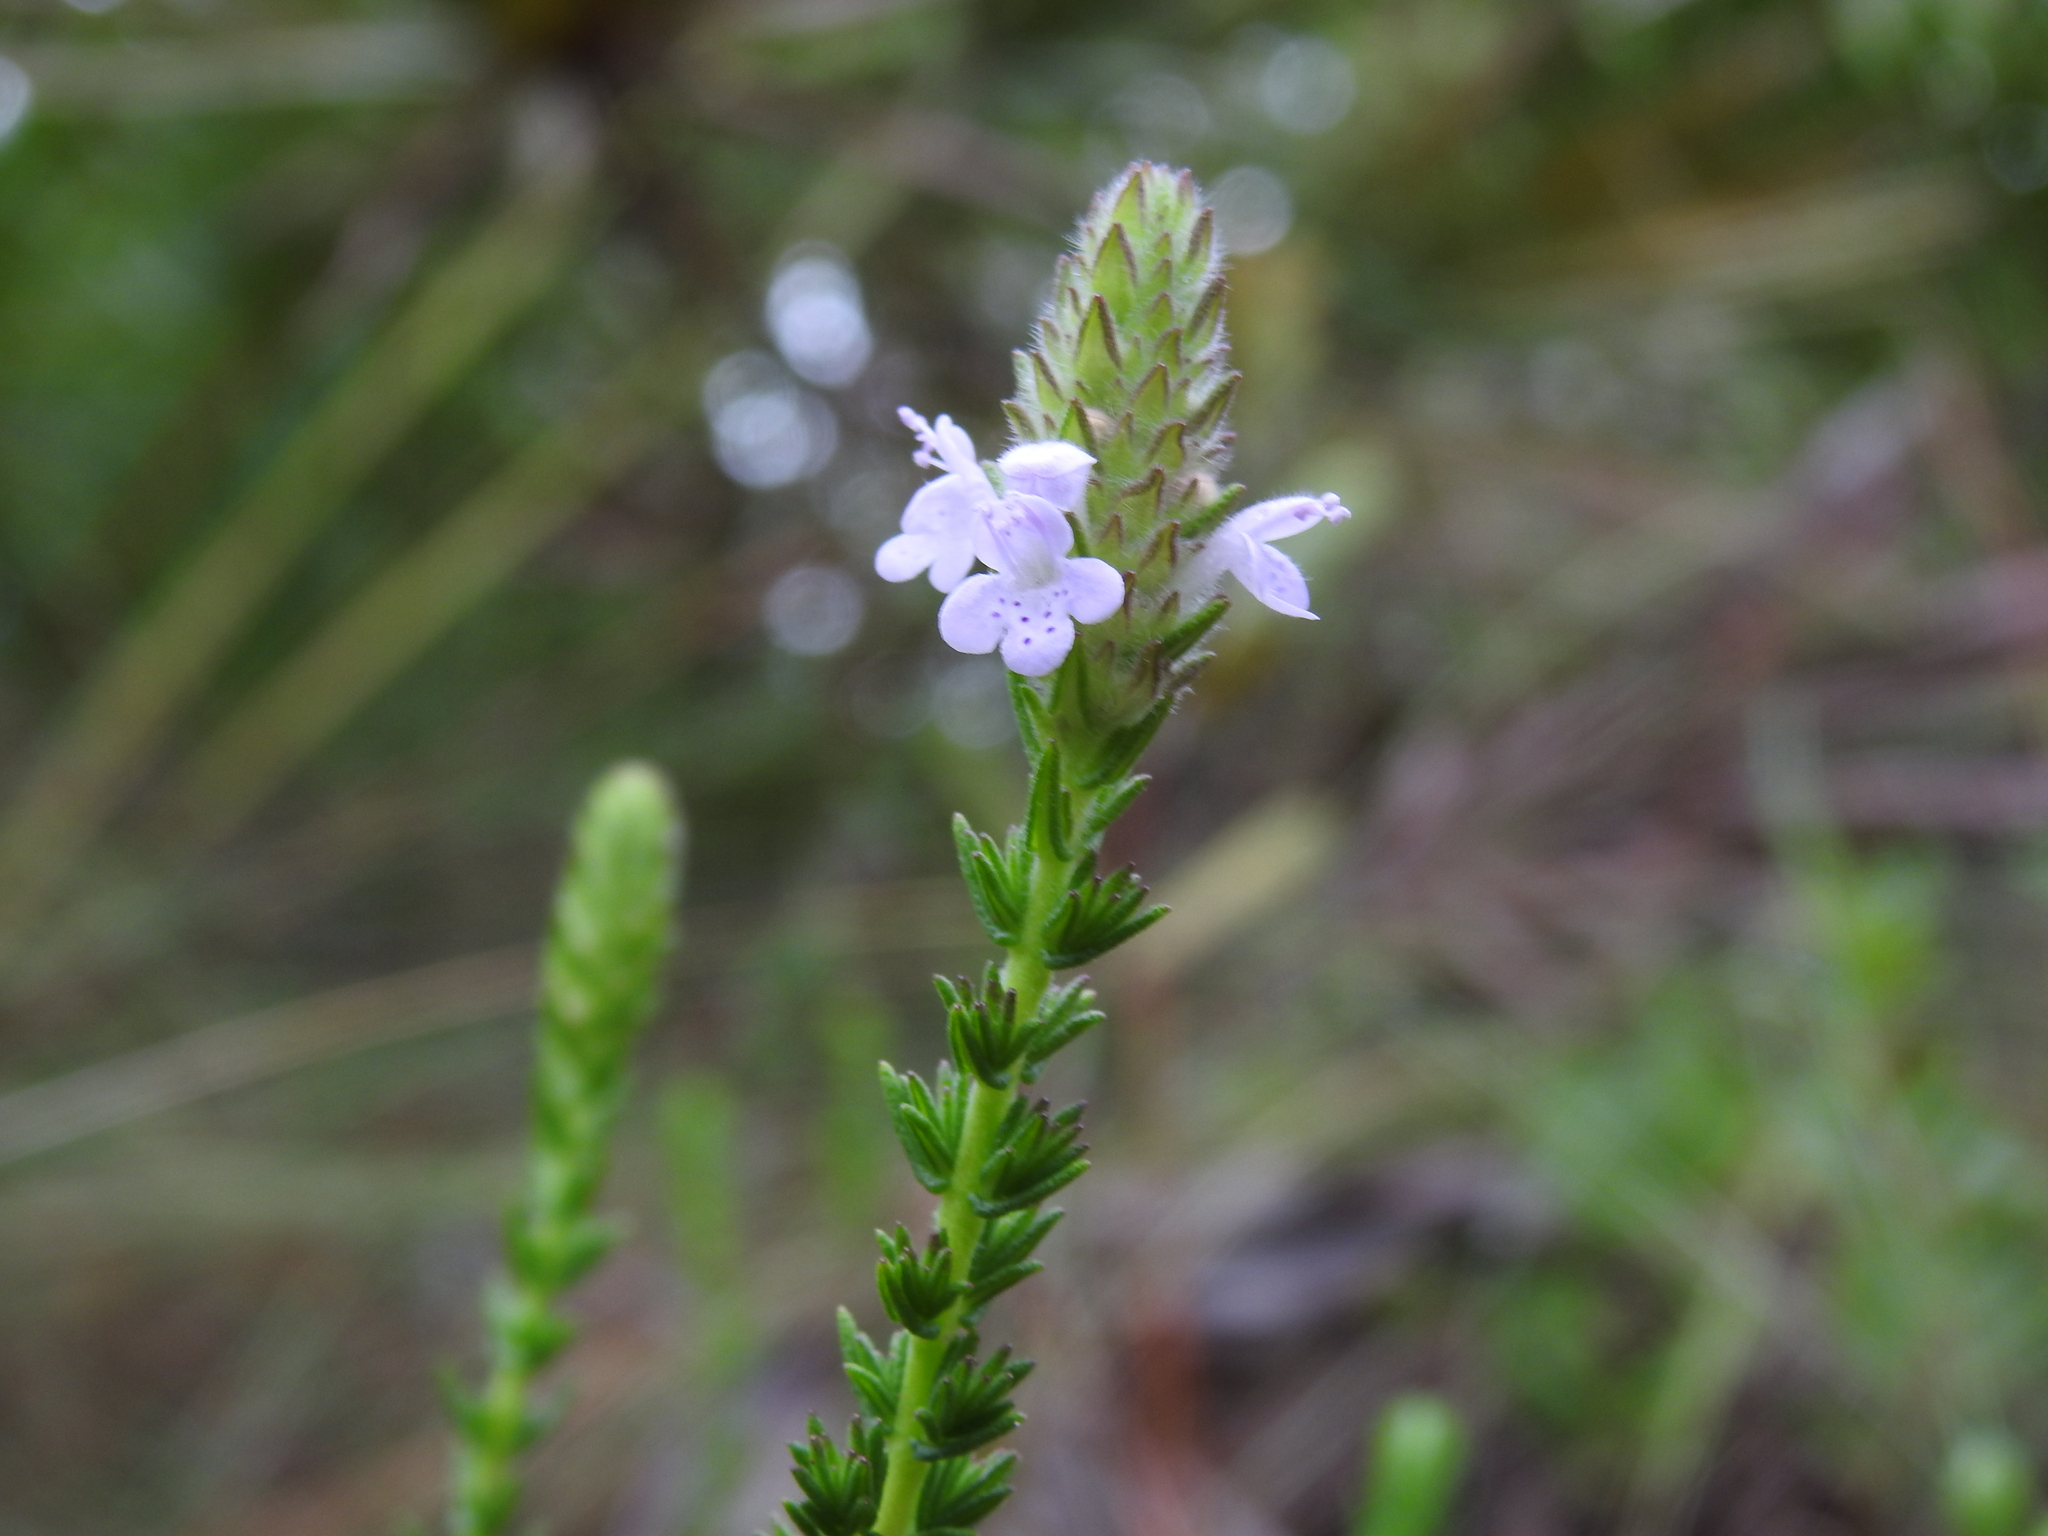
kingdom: Plantae
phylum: Tracheophyta
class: Magnoliopsida
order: Lamiales
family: Lamiaceae
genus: Piloblephis
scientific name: Piloblephis rigida
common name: Wild pennyroyal
